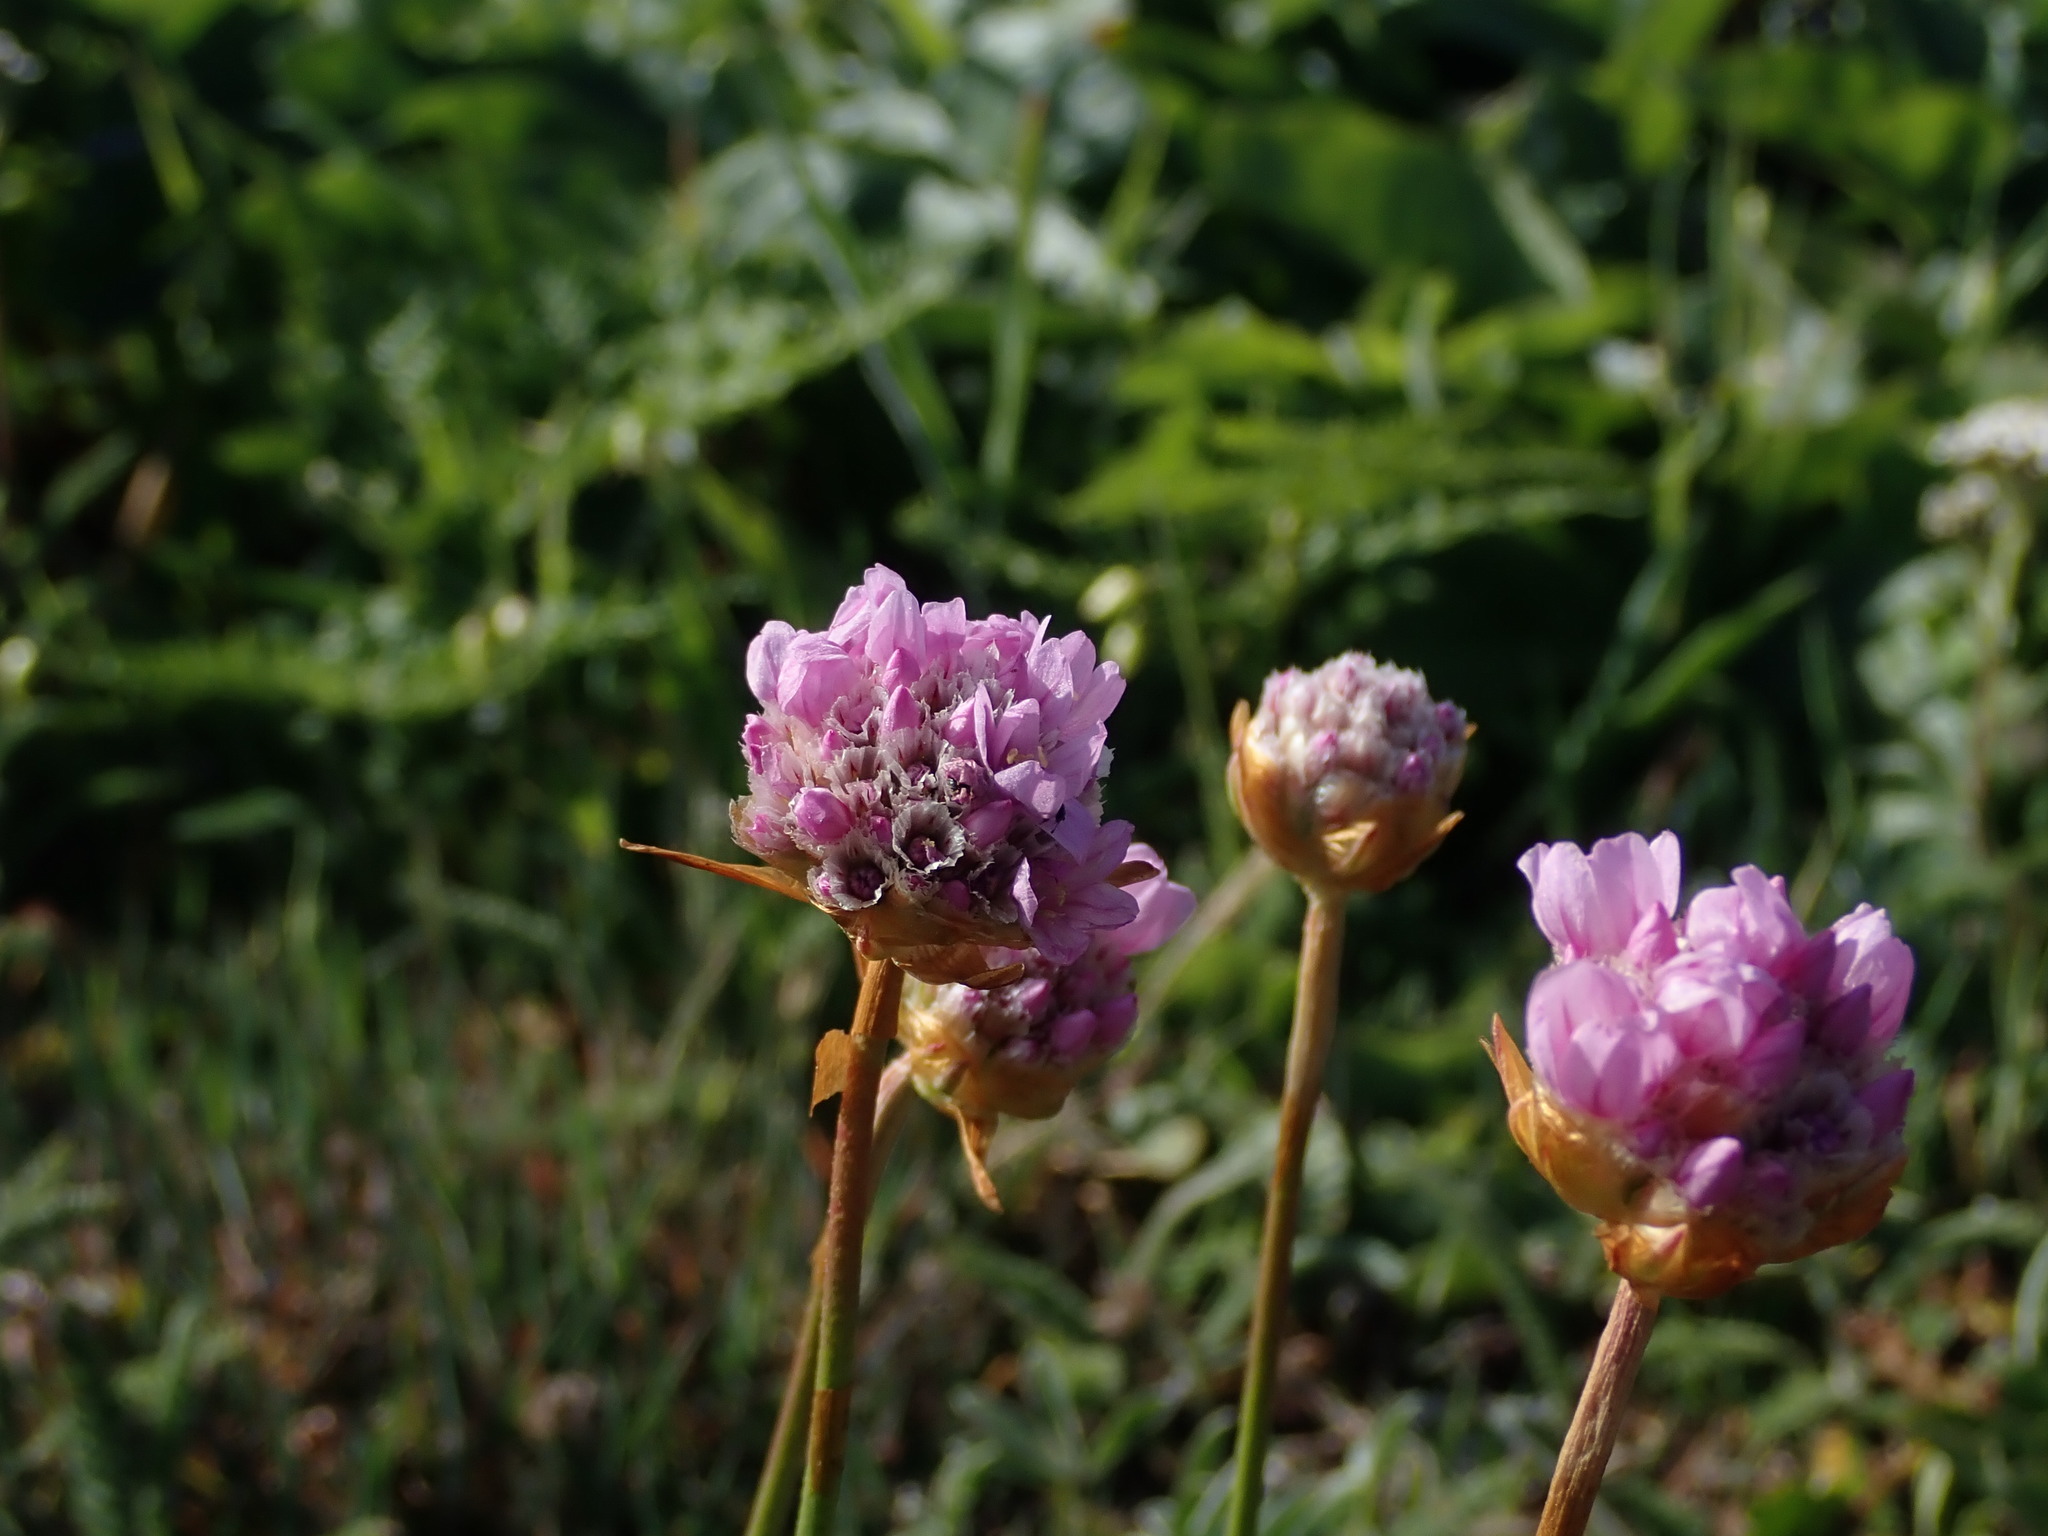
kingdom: Plantae
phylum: Tracheophyta
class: Magnoliopsida
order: Caryophyllales
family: Plumbaginaceae
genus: Armeria
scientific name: Armeria maritima
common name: Thrift
